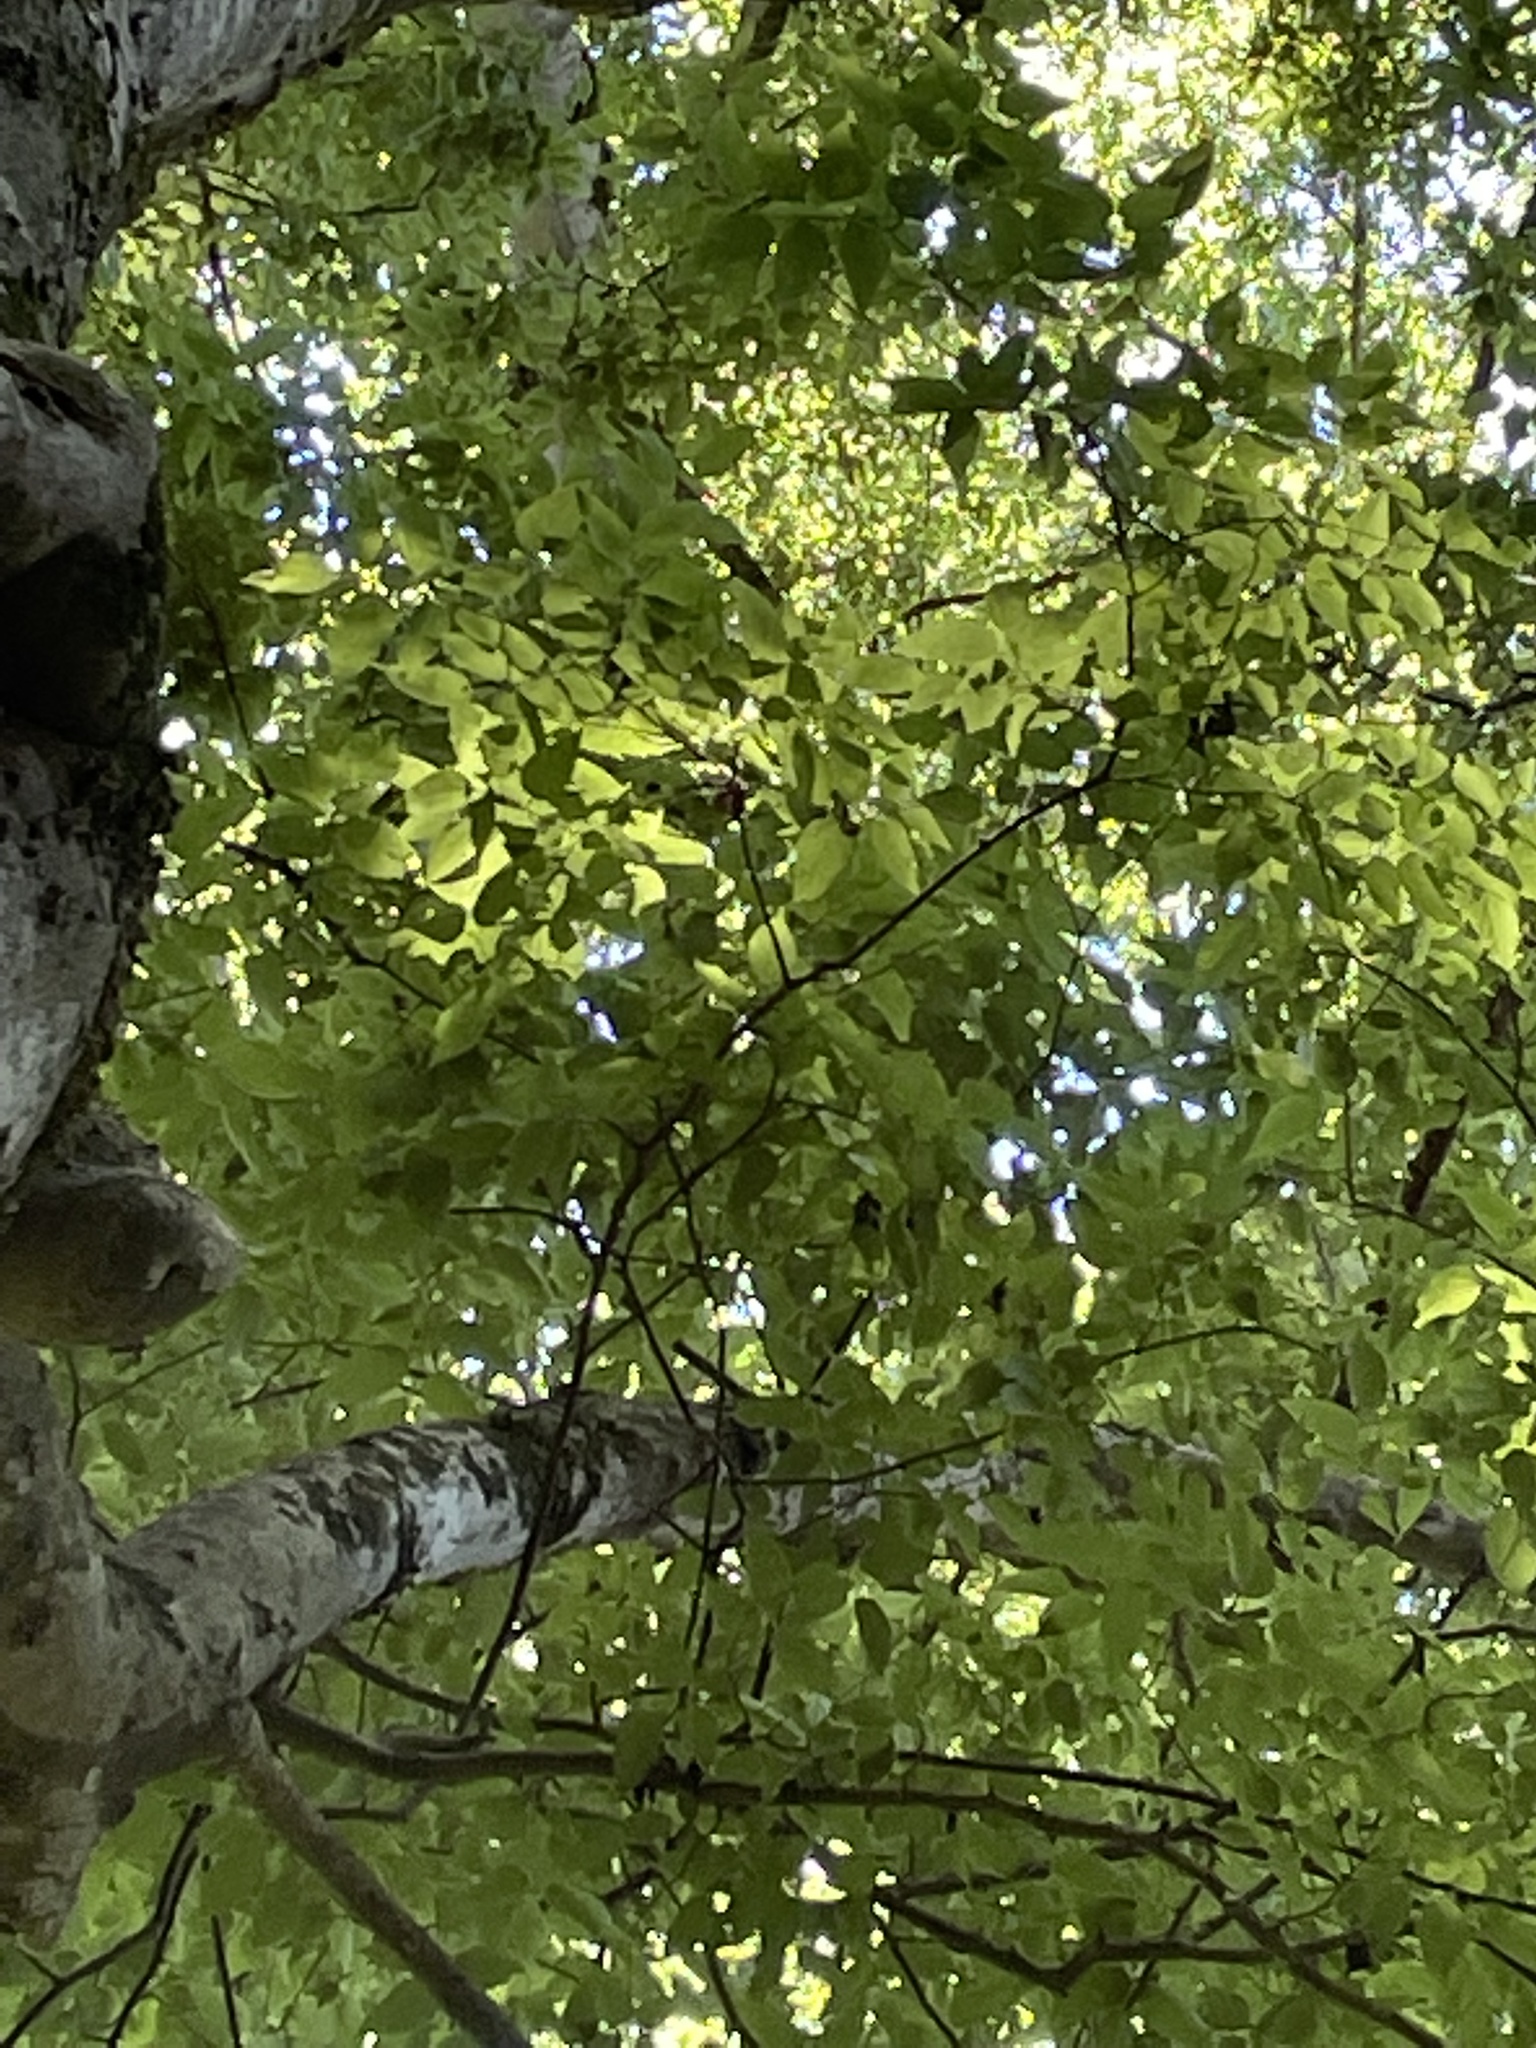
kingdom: Plantae
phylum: Tracheophyta
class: Magnoliopsida
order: Rosales
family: Cannabaceae
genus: Celtis
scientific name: Celtis laevigata
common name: Sugarberry
